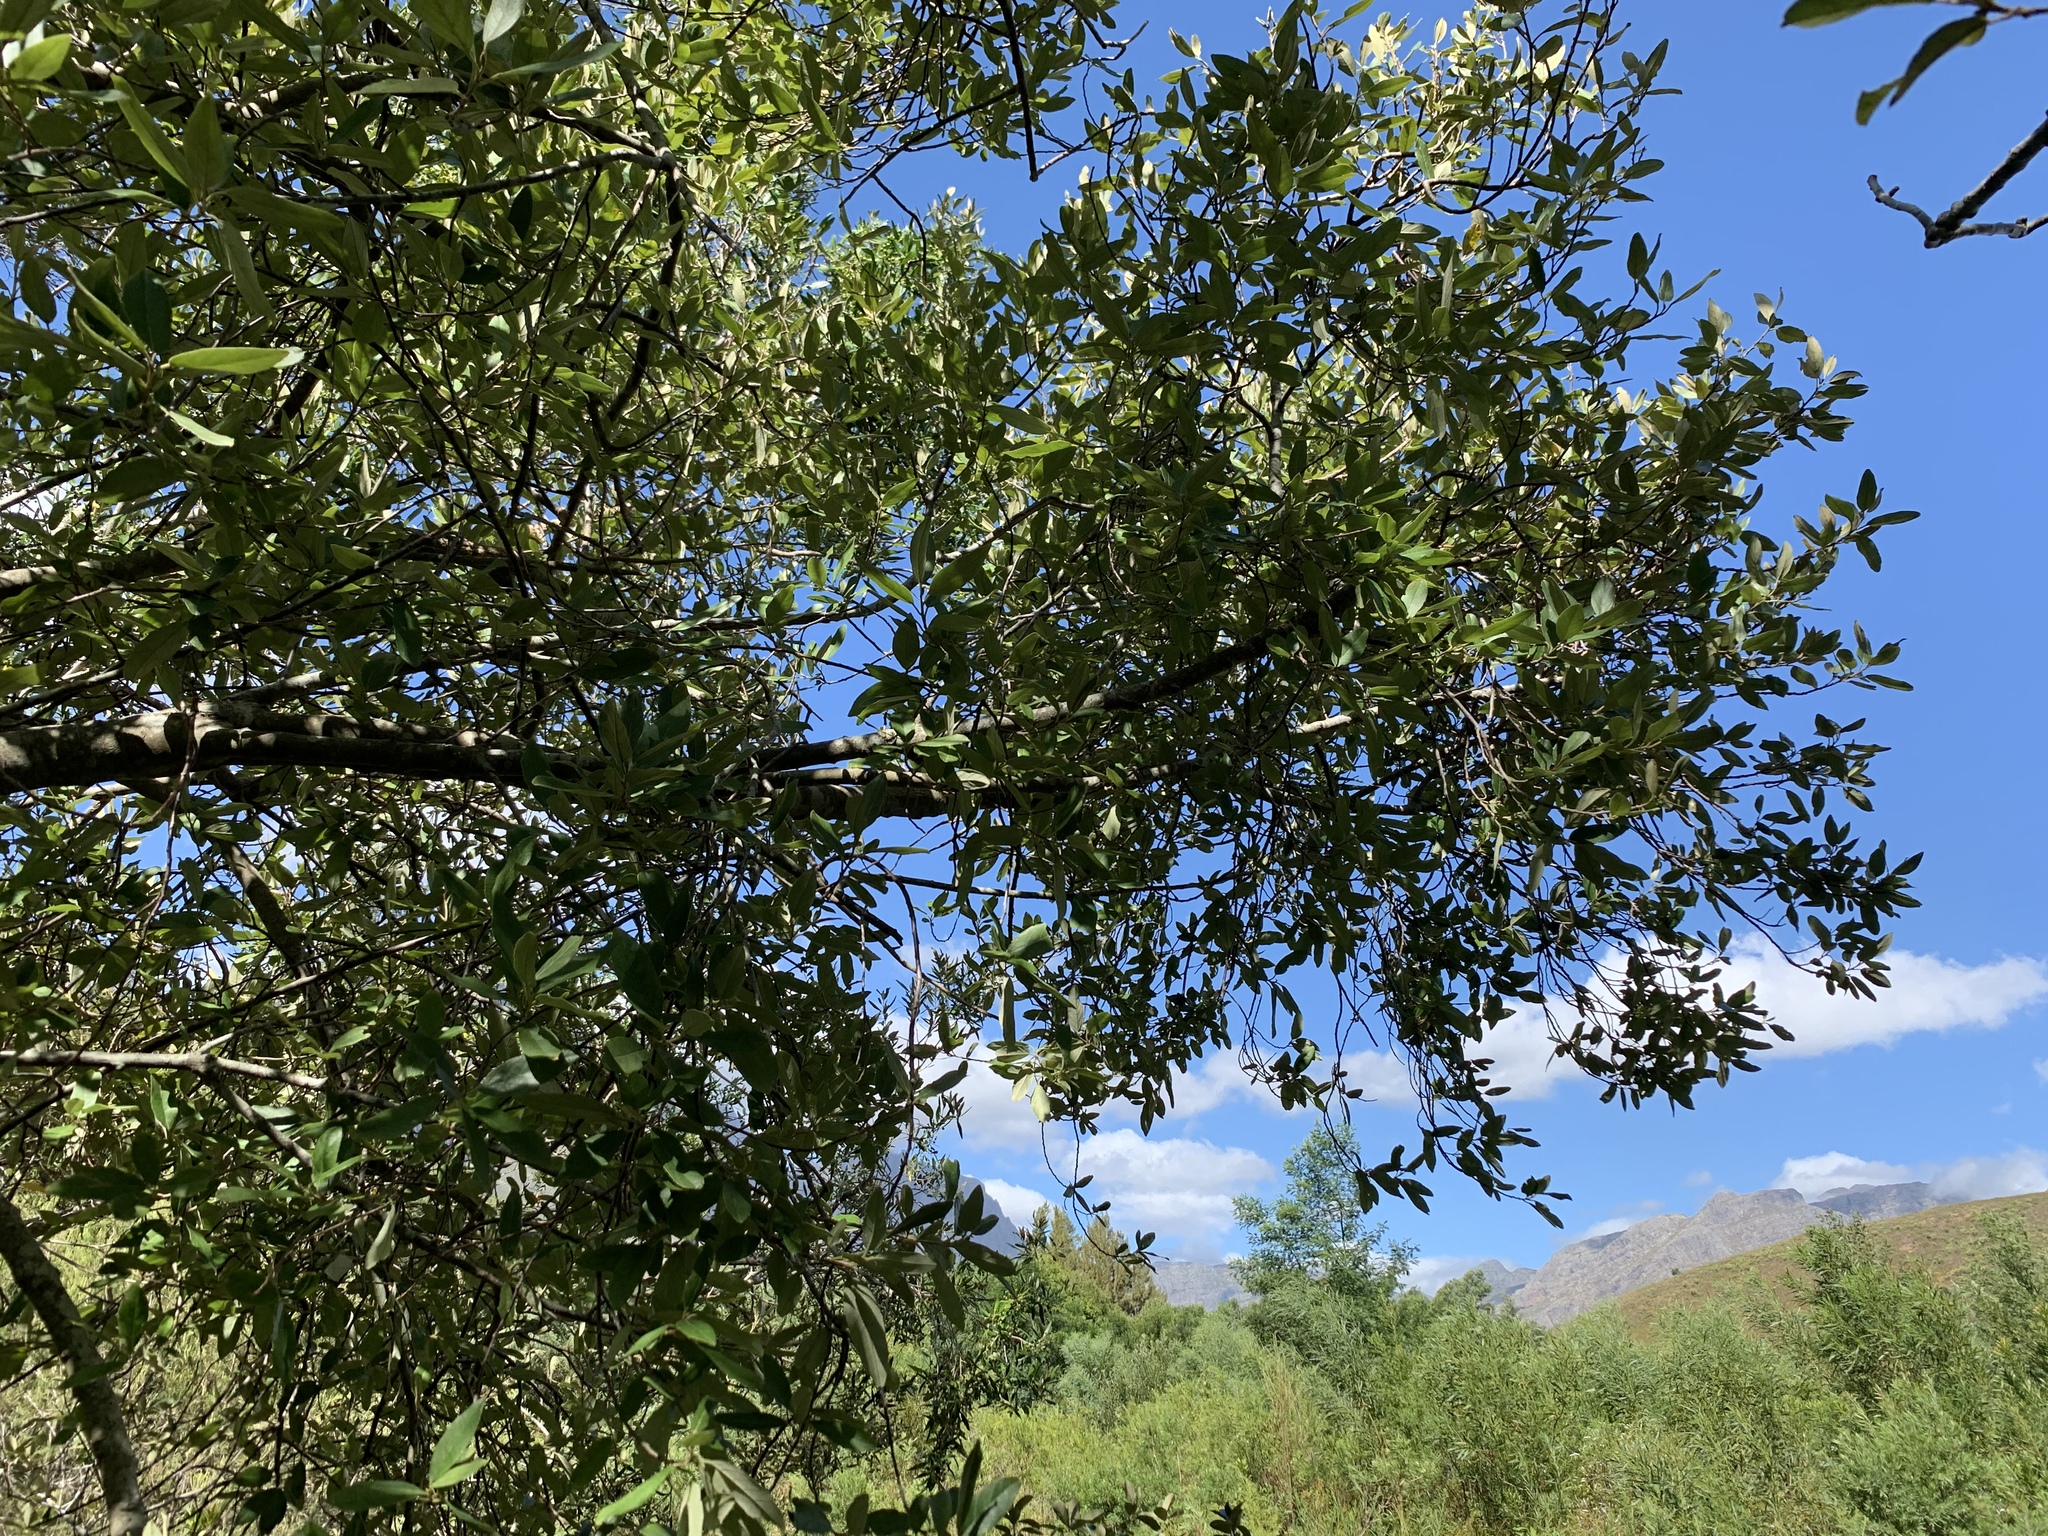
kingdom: Plantae
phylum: Tracheophyta
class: Magnoliopsida
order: Malpighiales
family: Achariaceae
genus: Kiggelaria
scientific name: Kiggelaria africana
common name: Wild peach
